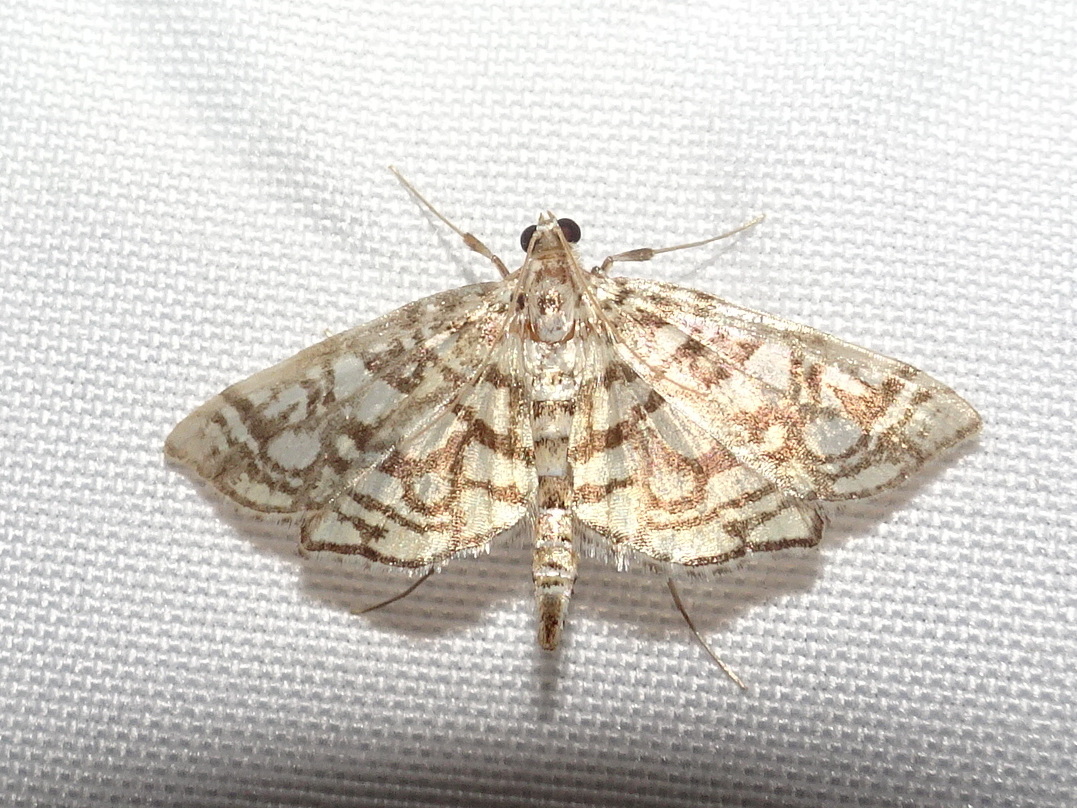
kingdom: Animalia
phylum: Arthropoda
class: Insecta
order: Lepidoptera
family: Crambidae
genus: Lygropia
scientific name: Lygropia rivulalis
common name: Bog lygropia moth
